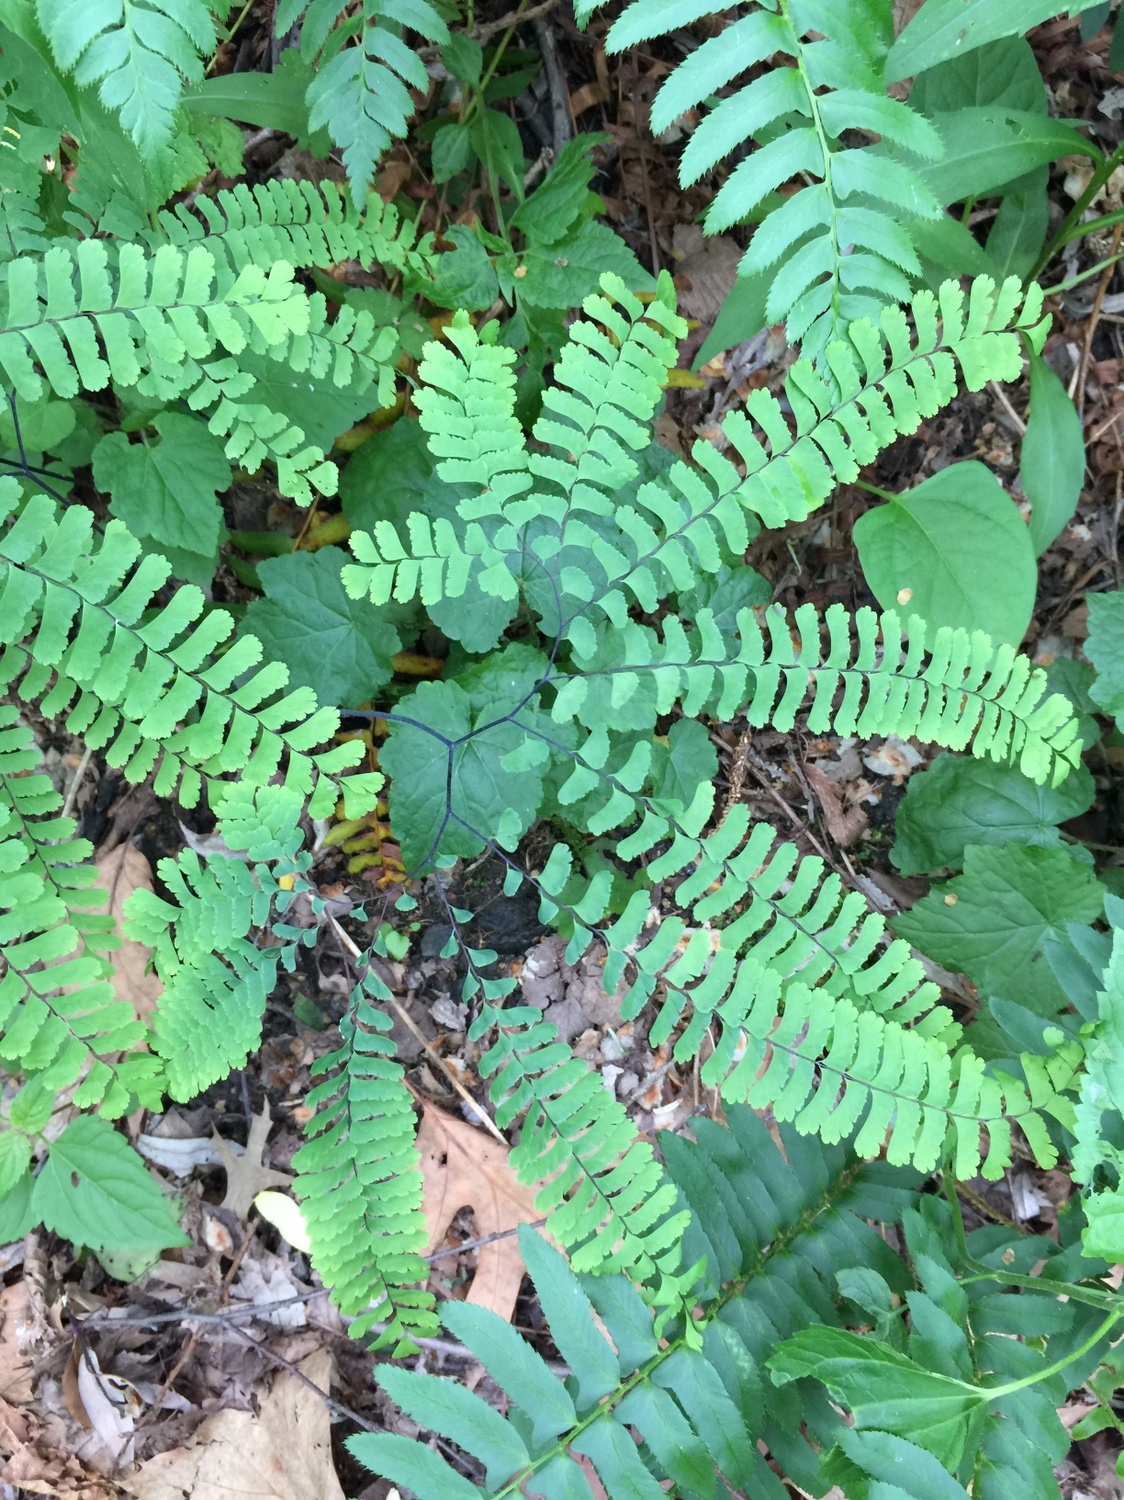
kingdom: Plantae
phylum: Tracheophyta
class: Polypodiopsida
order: Polypodiales
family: Pteridaceae
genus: Adiantum
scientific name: Adiantum pedatum
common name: Five-finger fern
